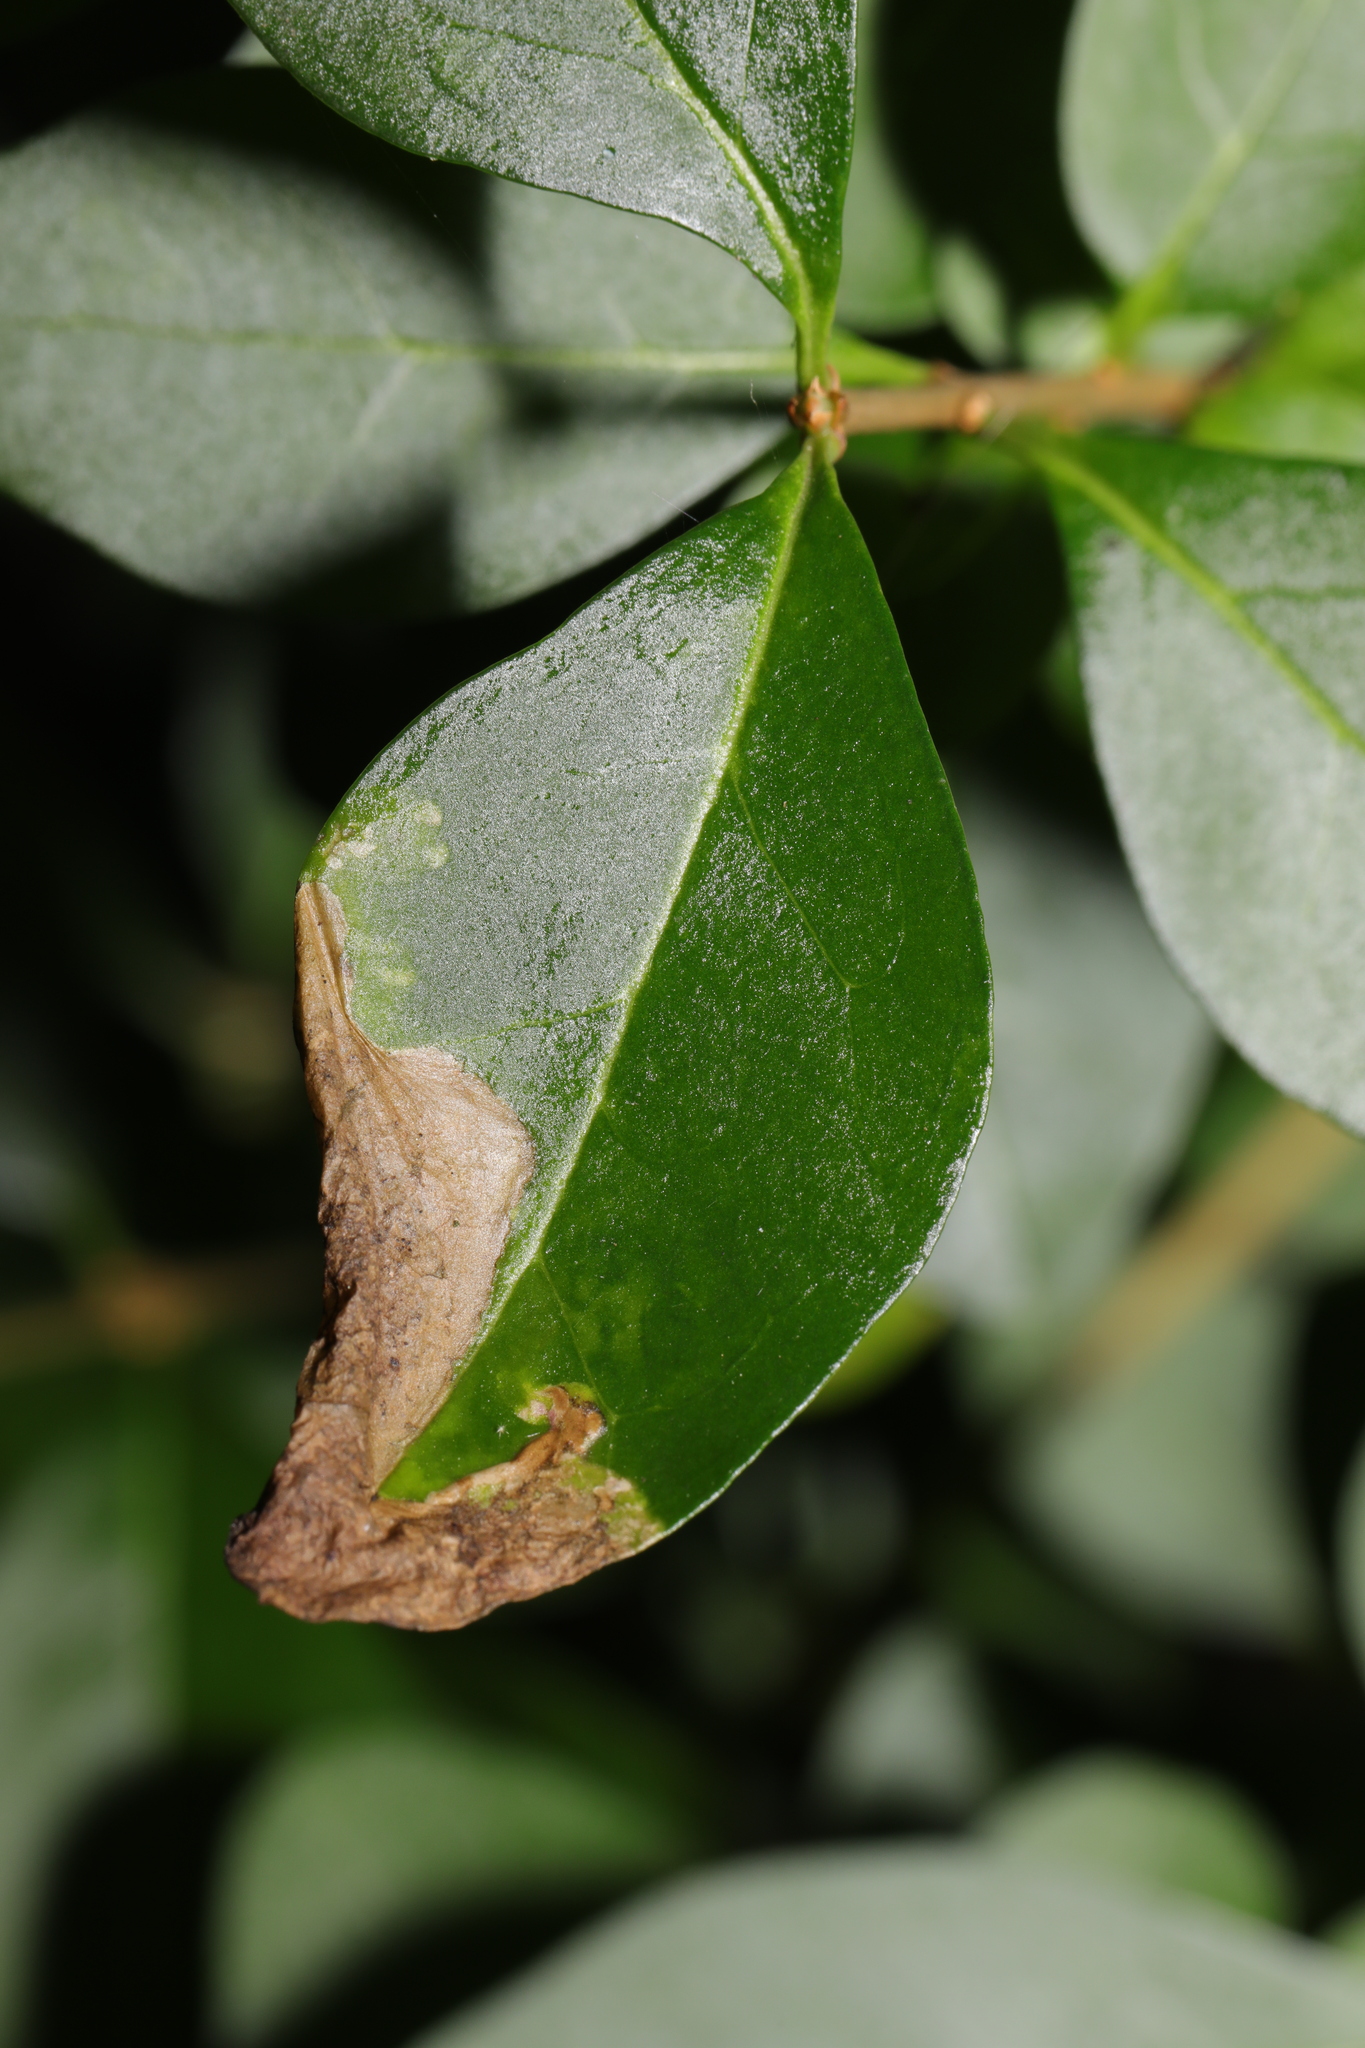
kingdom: Animalia
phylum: Arthropoda
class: Insecta
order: Lepidoptera
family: Gracillariidae
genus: Gracillaria
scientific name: Gracillaria syringella
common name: Common slender
